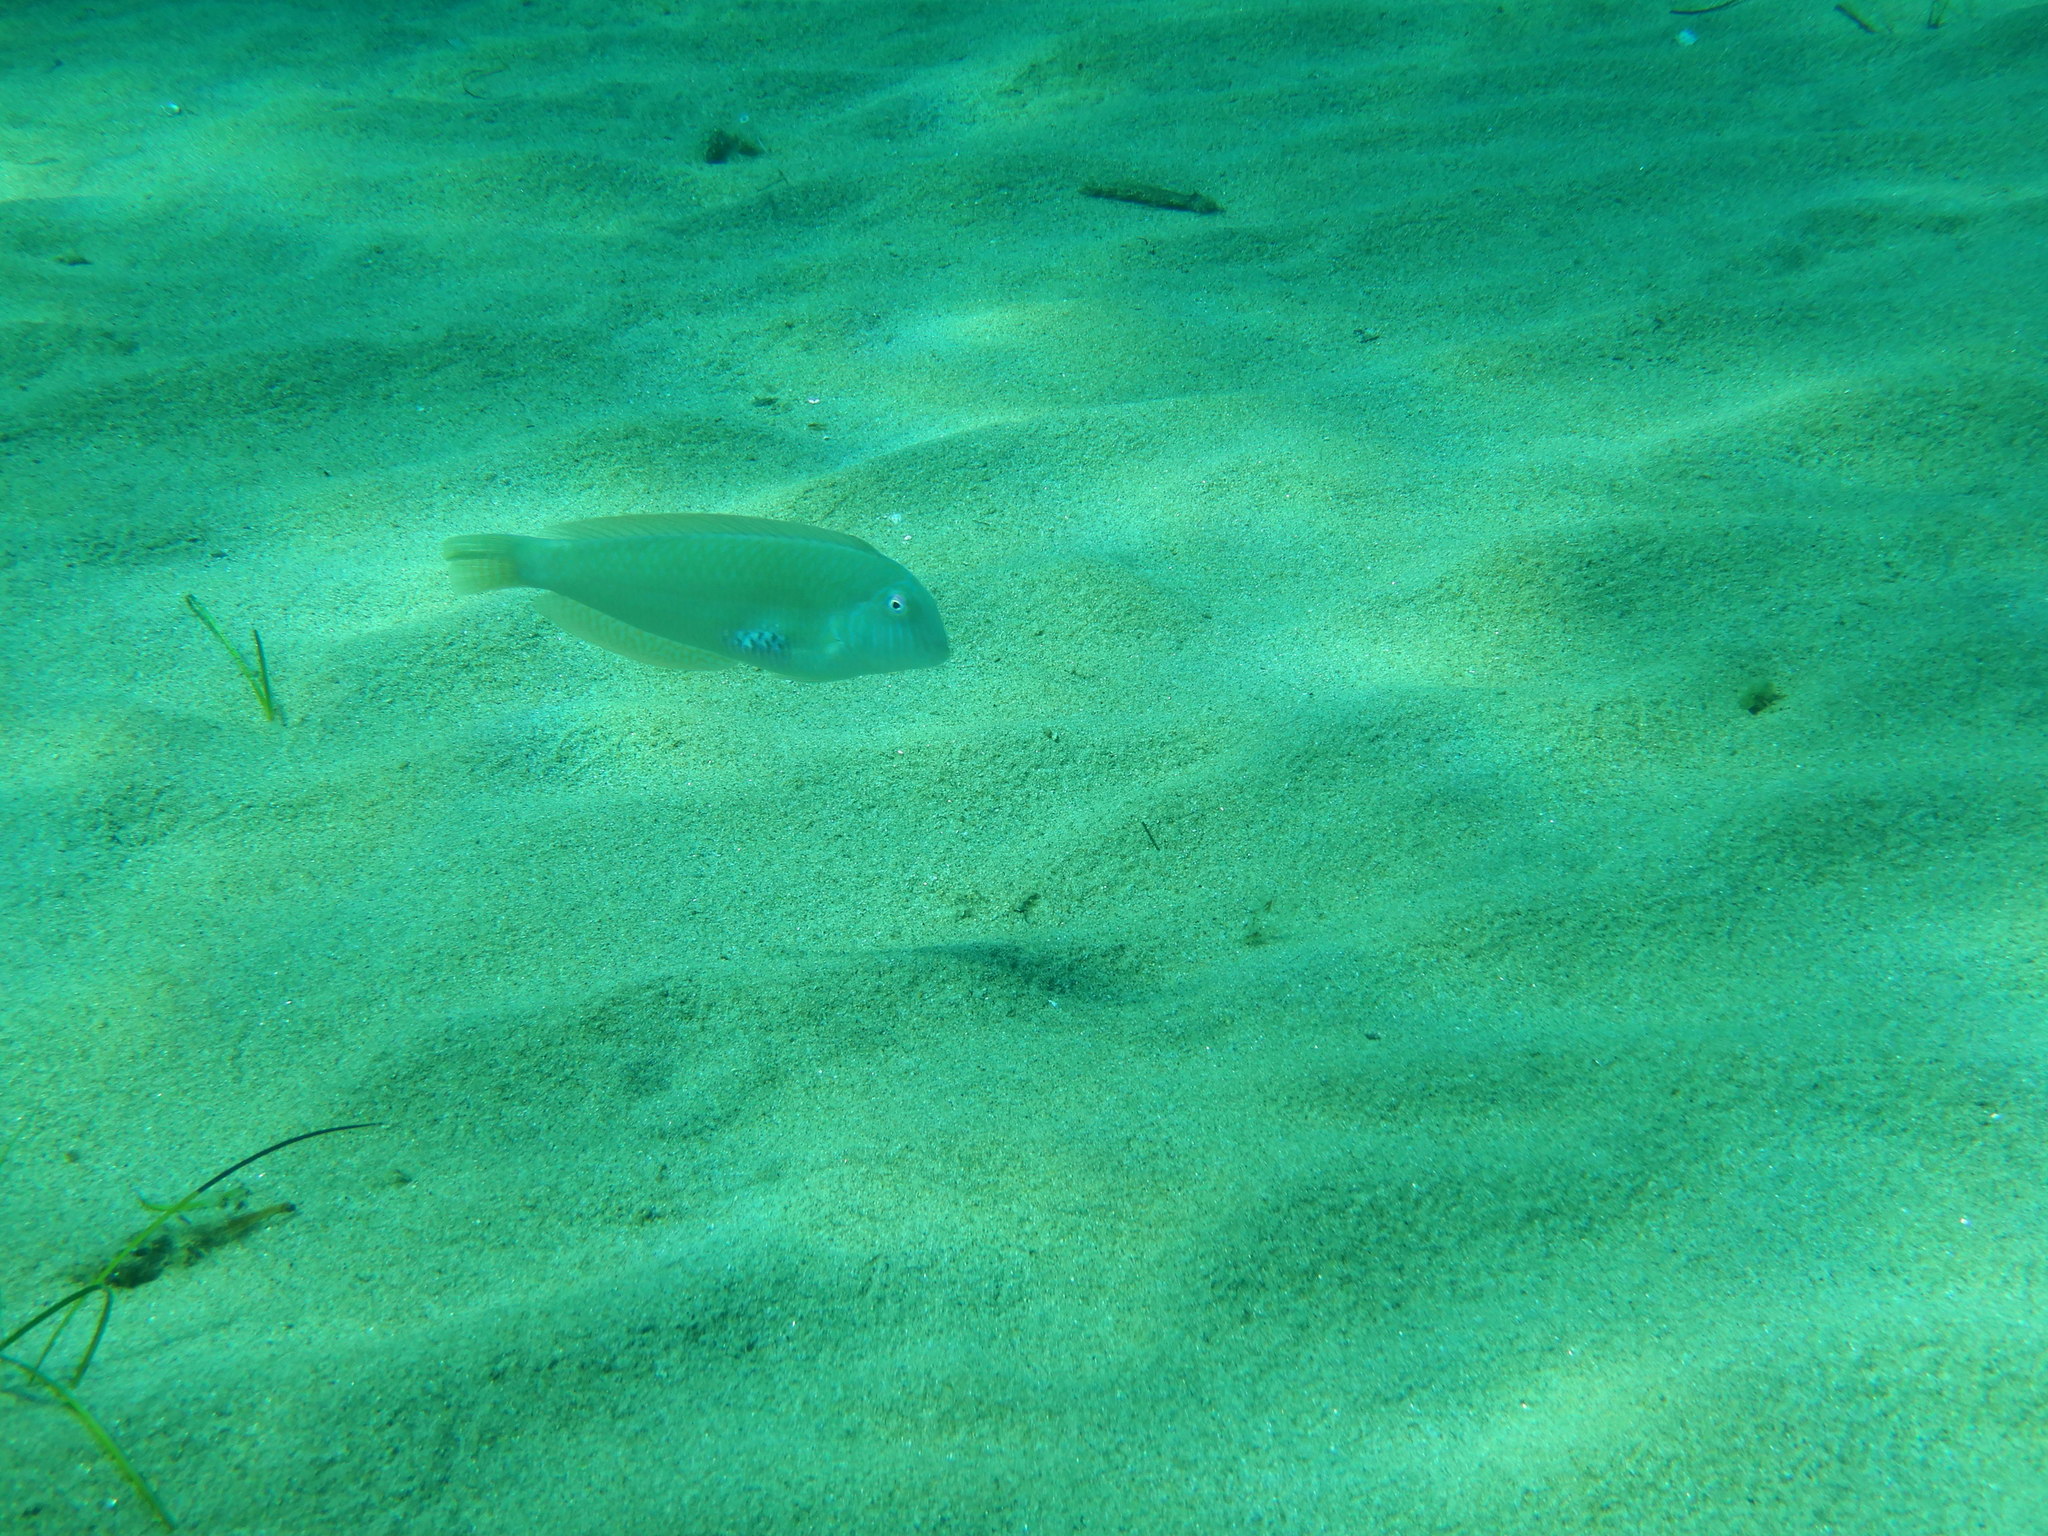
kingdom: Animalia
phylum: Chordata
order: Perciformes
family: Labridae
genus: Xyrichtys
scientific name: Xyrichtys novacula
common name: Pearly razorfish
